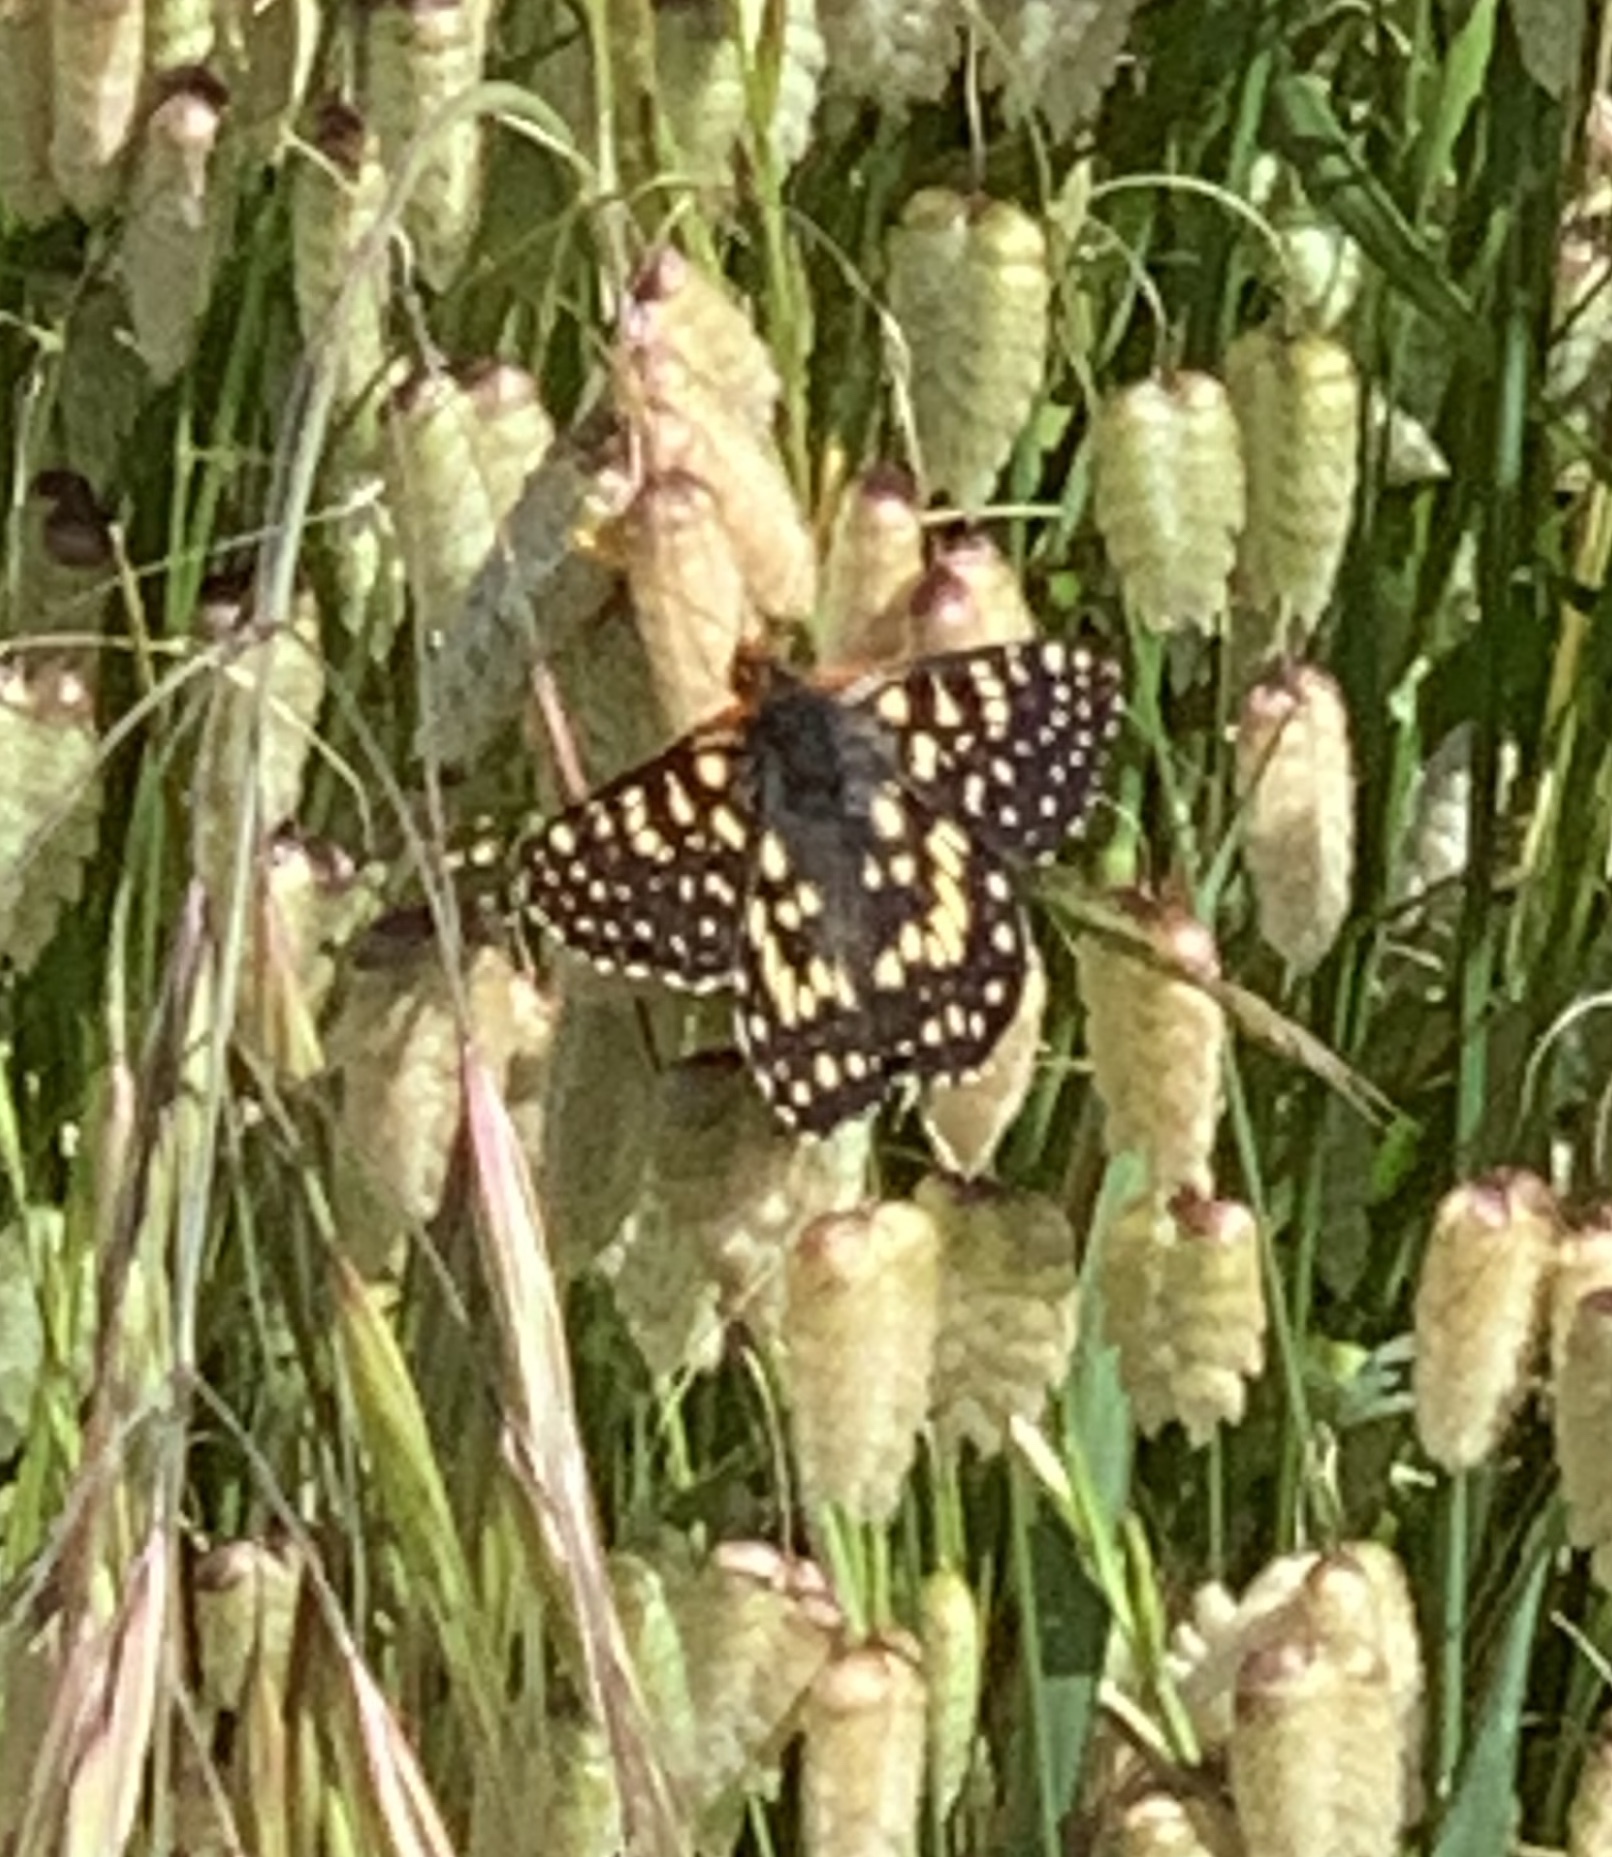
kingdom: Animalia
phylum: Arthropoda
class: Insecta
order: Lepidoptera
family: Nymphalidae
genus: Occidryas
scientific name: Occidryas chalcedona
